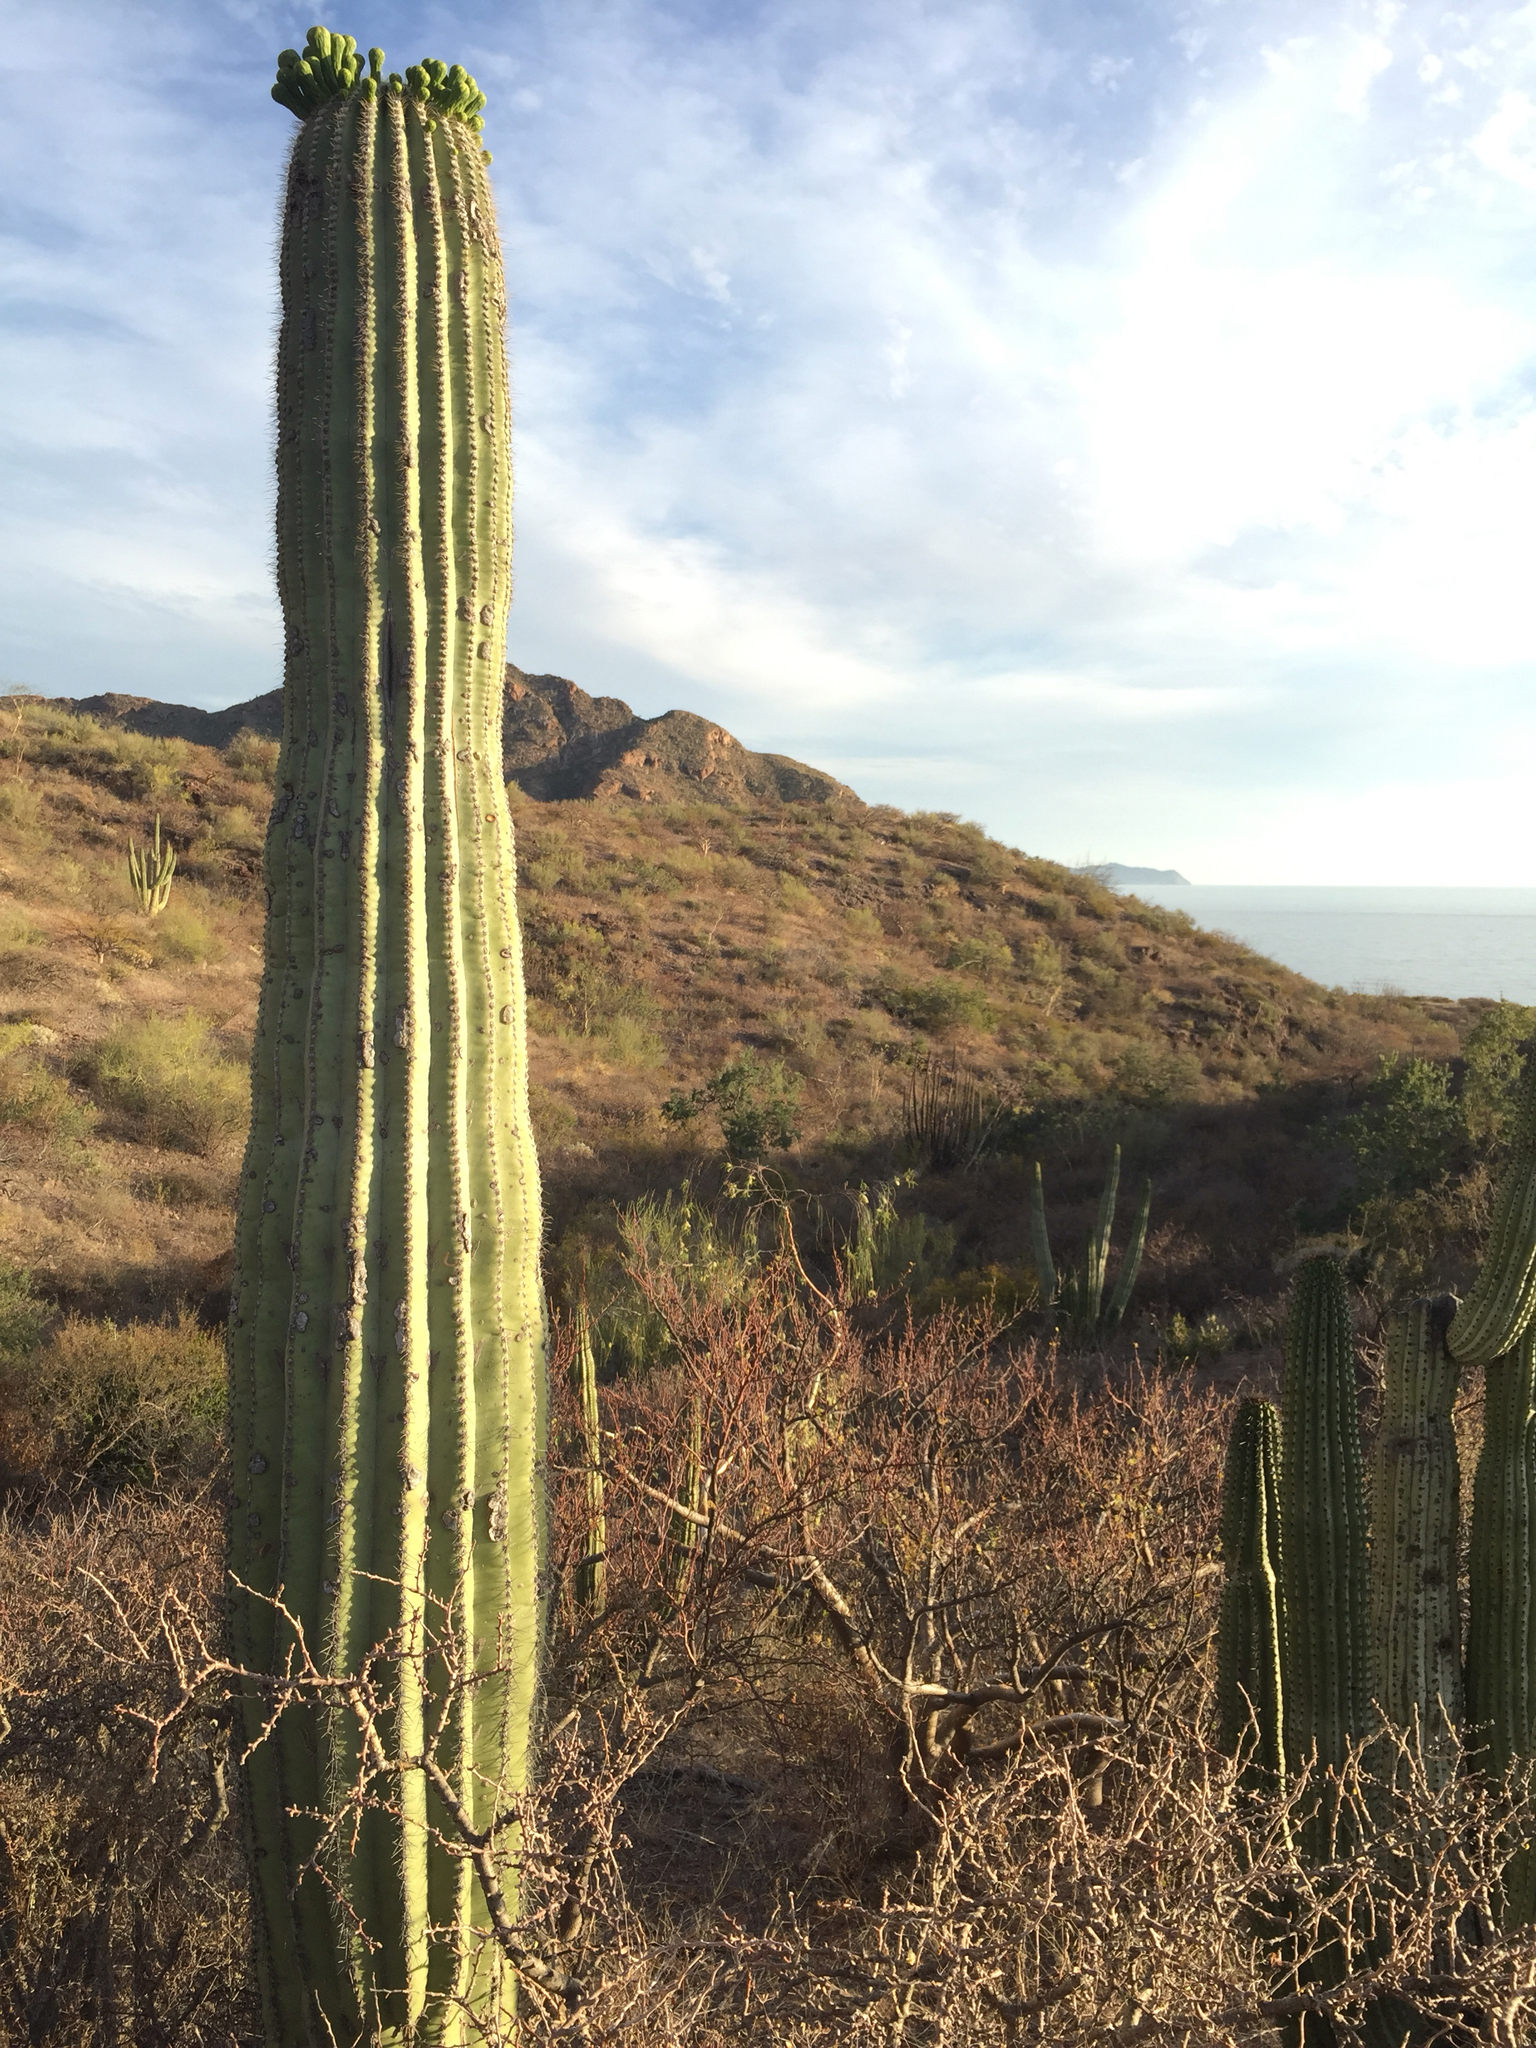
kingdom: Plantae
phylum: Tracheophyta
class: Magnoliopsida
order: Caryophyllales
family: Cactaceae
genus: Carnegiea
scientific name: Carnegiea gigantea
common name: Saguaro
